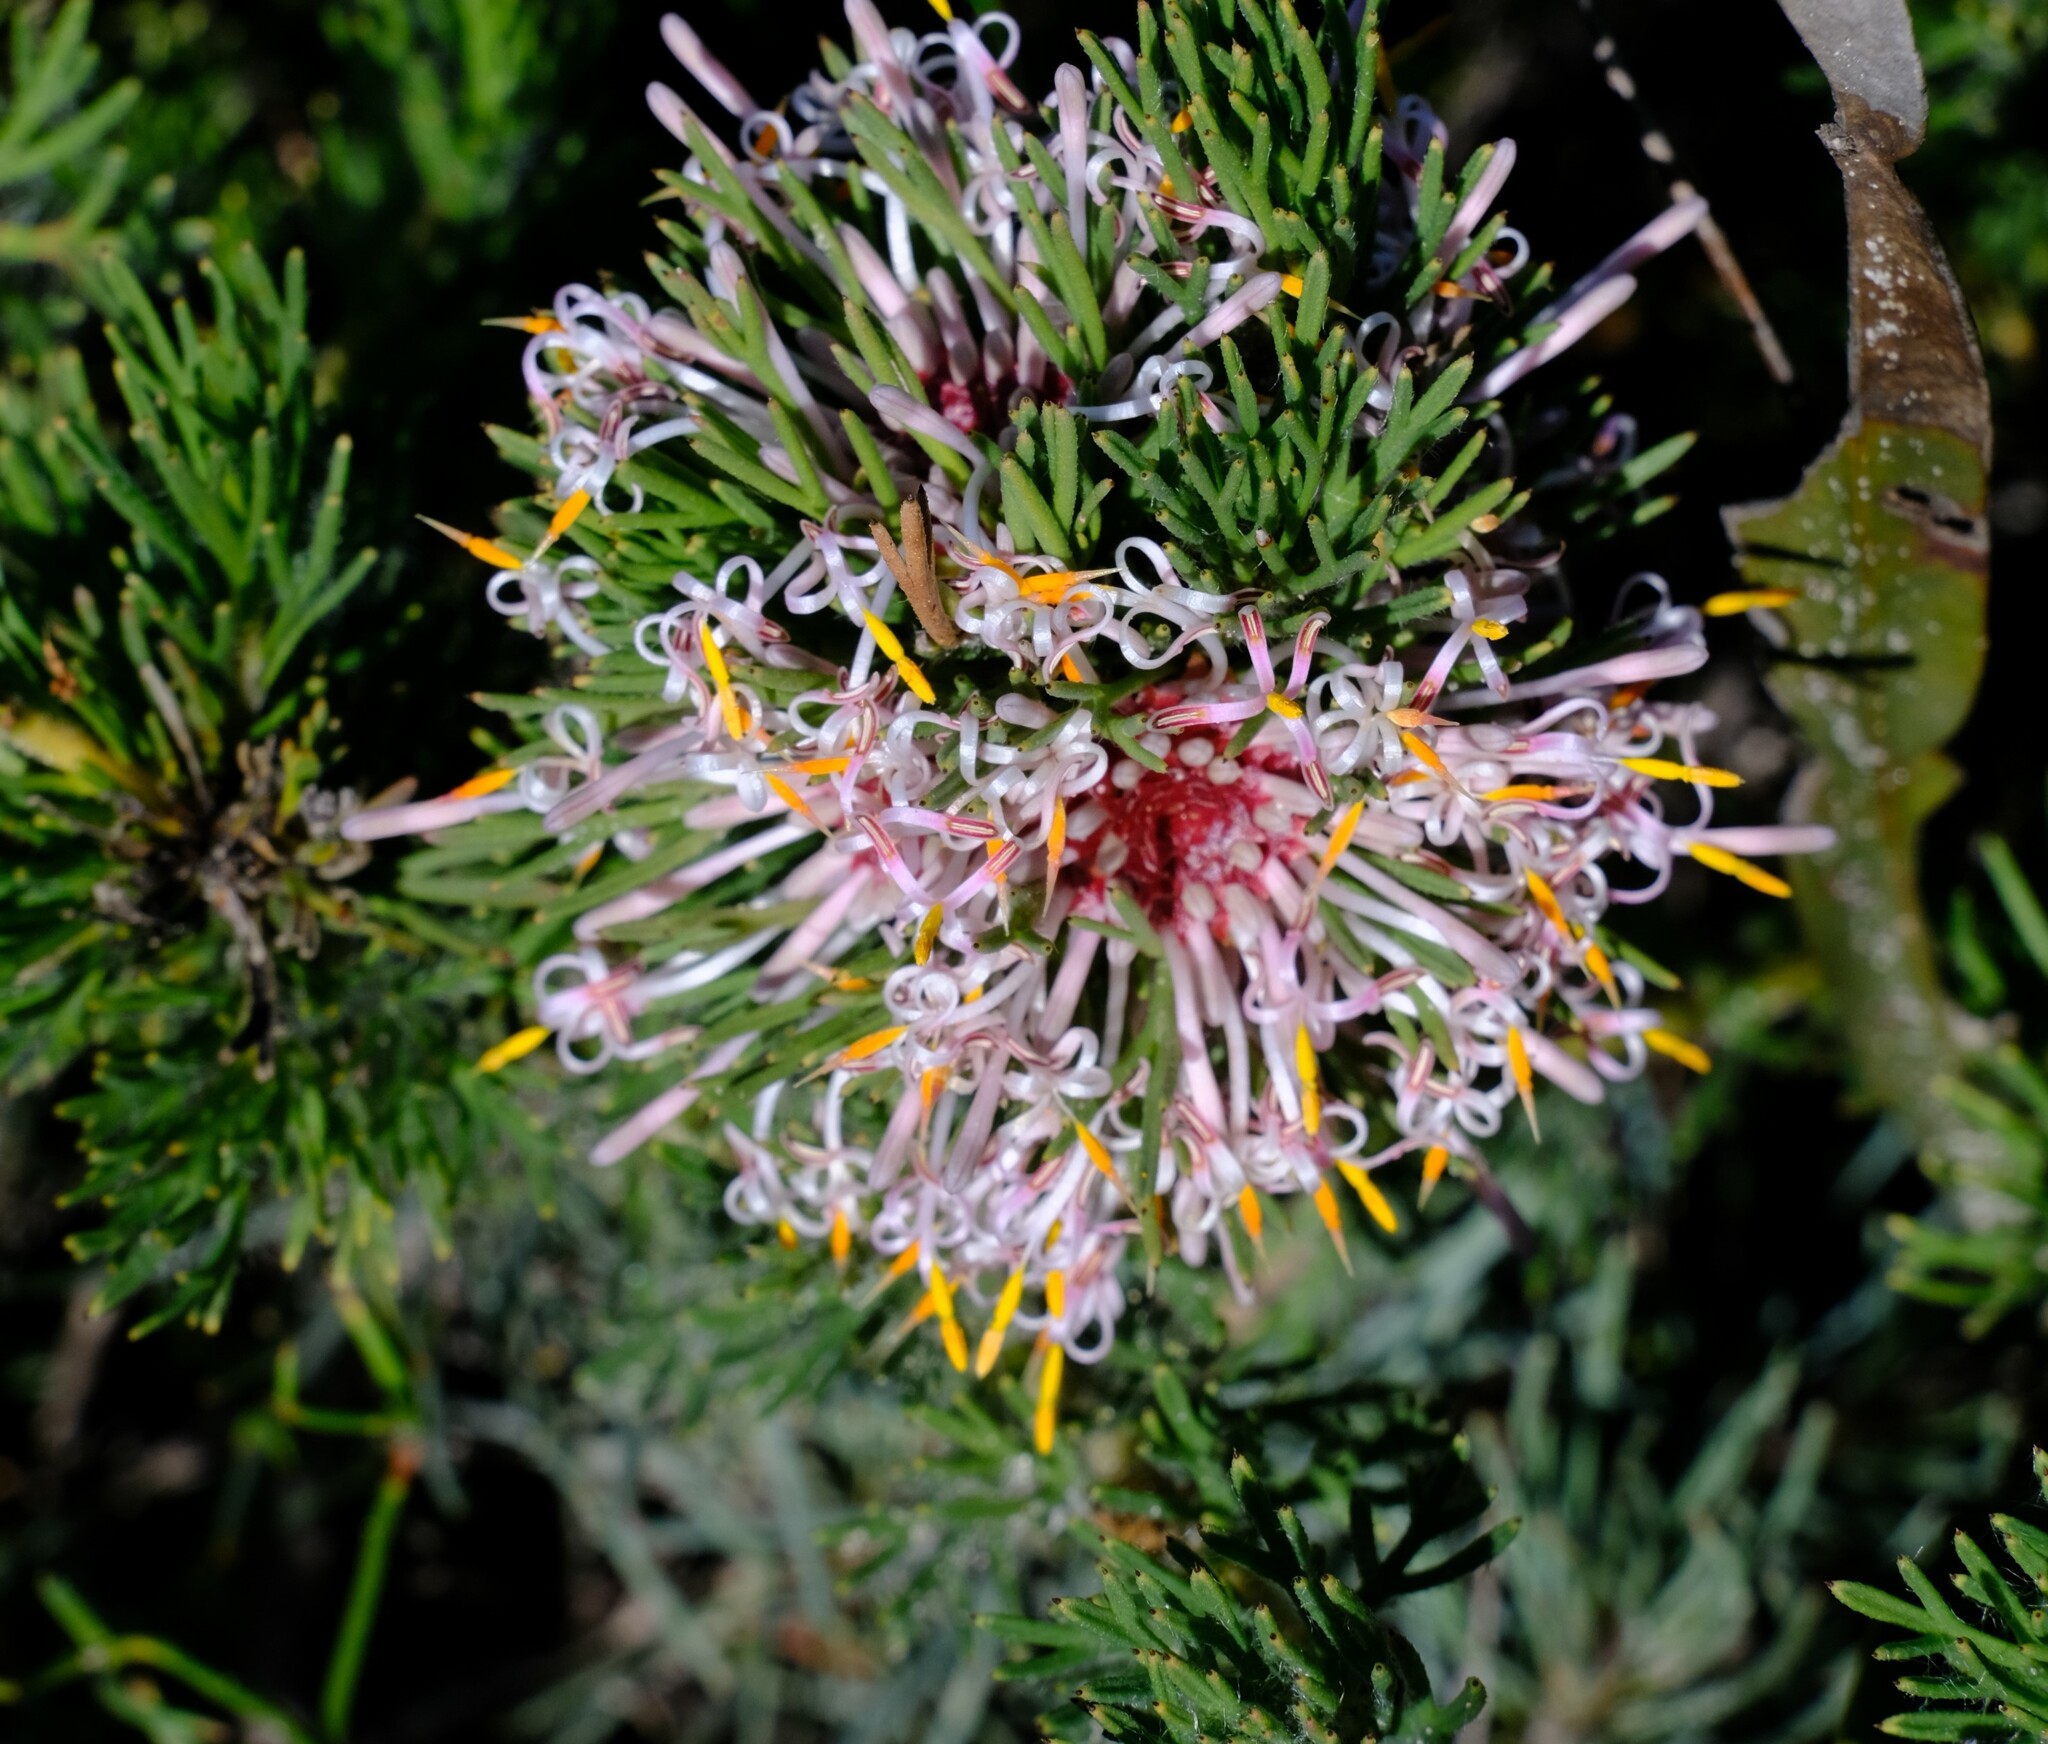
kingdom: Plantae
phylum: Tracheophyta
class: Magnoliopsida
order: Proteales
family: Proteaceae
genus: Isopogon
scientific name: Isopogon asper
